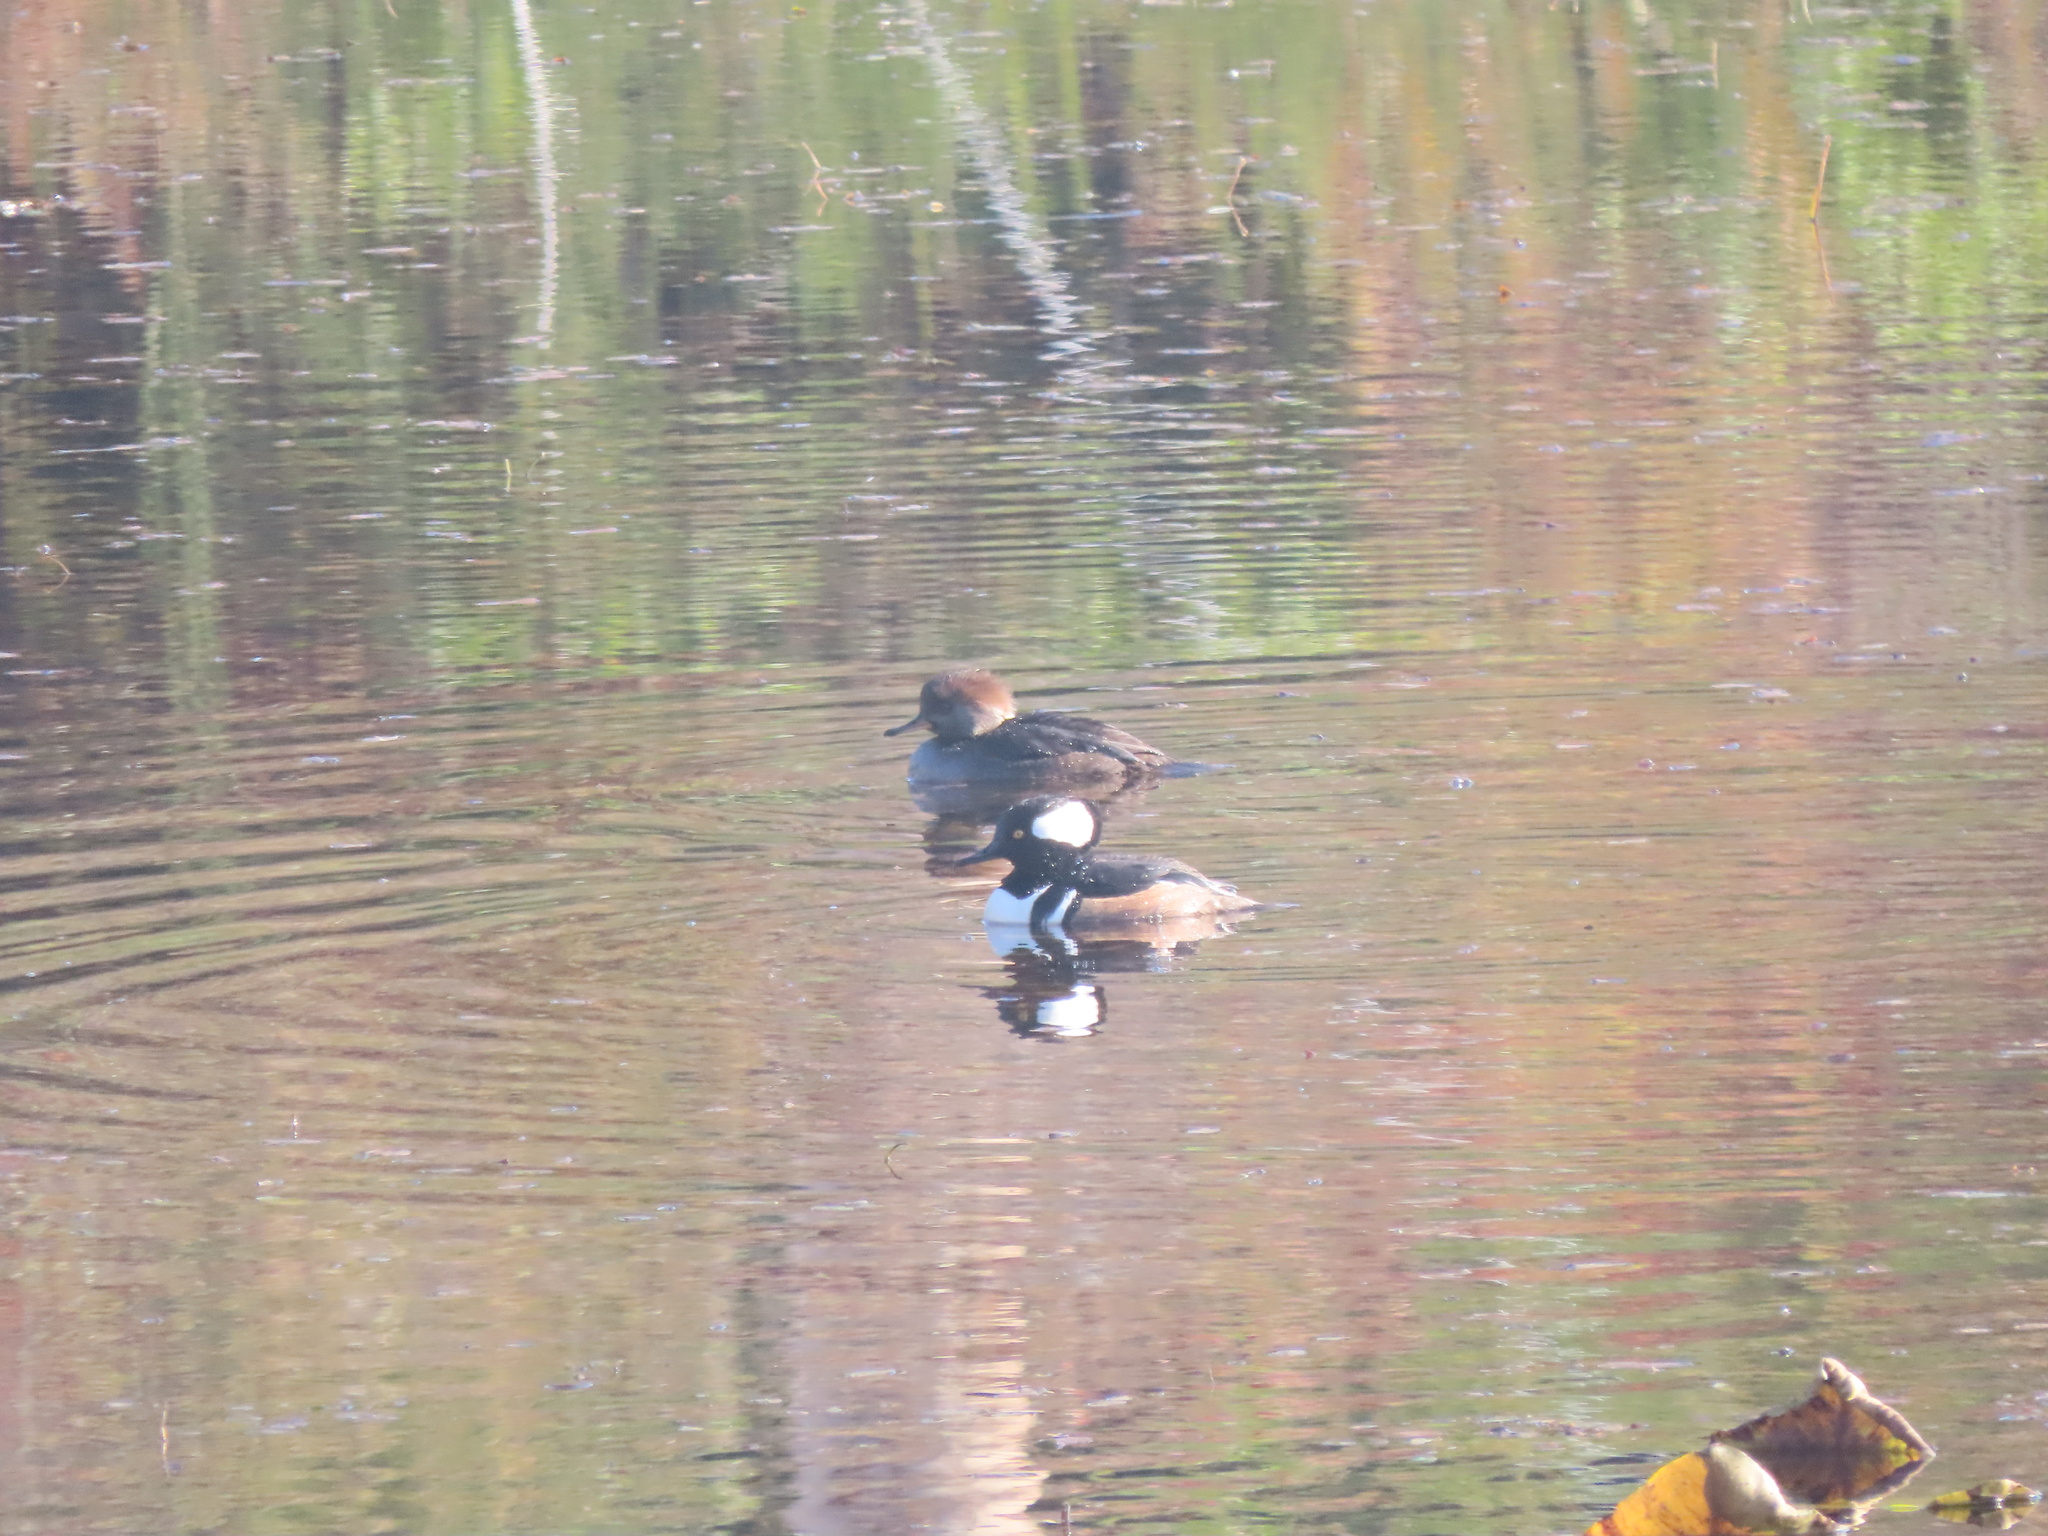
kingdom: Animalia
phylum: Chordata
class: Aves
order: Anseriformes
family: Anatidae
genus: Lophodytes
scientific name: Lophodytes cucullatus
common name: Hooded merganser
